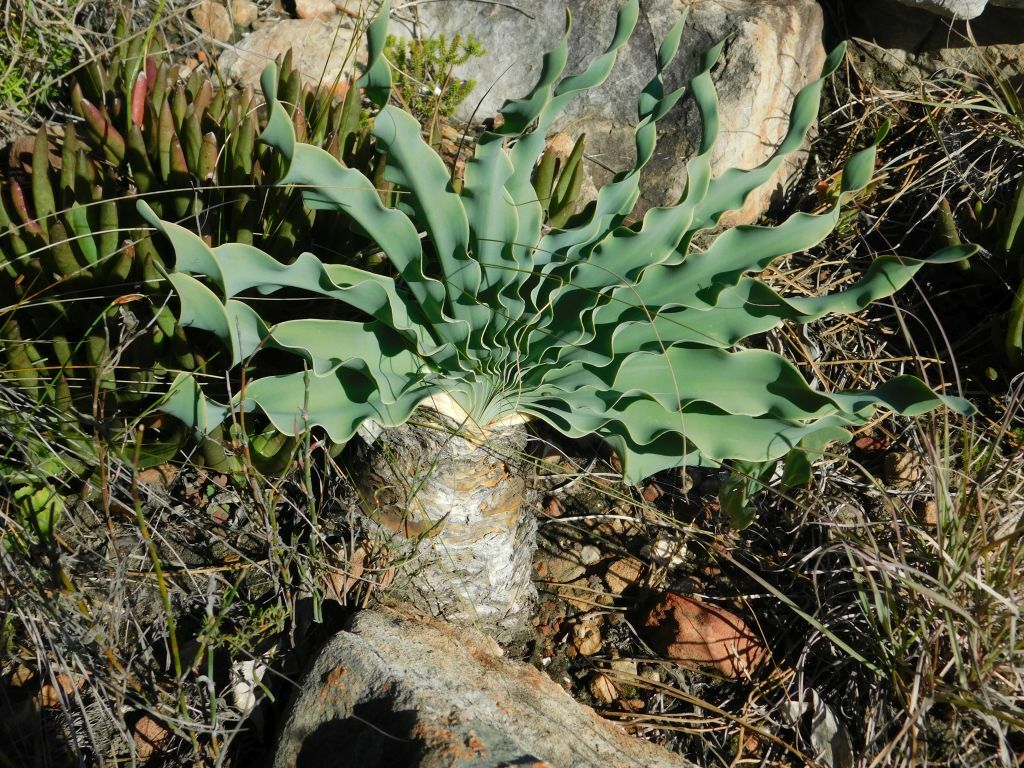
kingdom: Plantae
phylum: Tracheophyta
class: Liliopsida
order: Asparagales
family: Amaryllidaceae
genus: Boophone
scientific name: Boophone disticha
